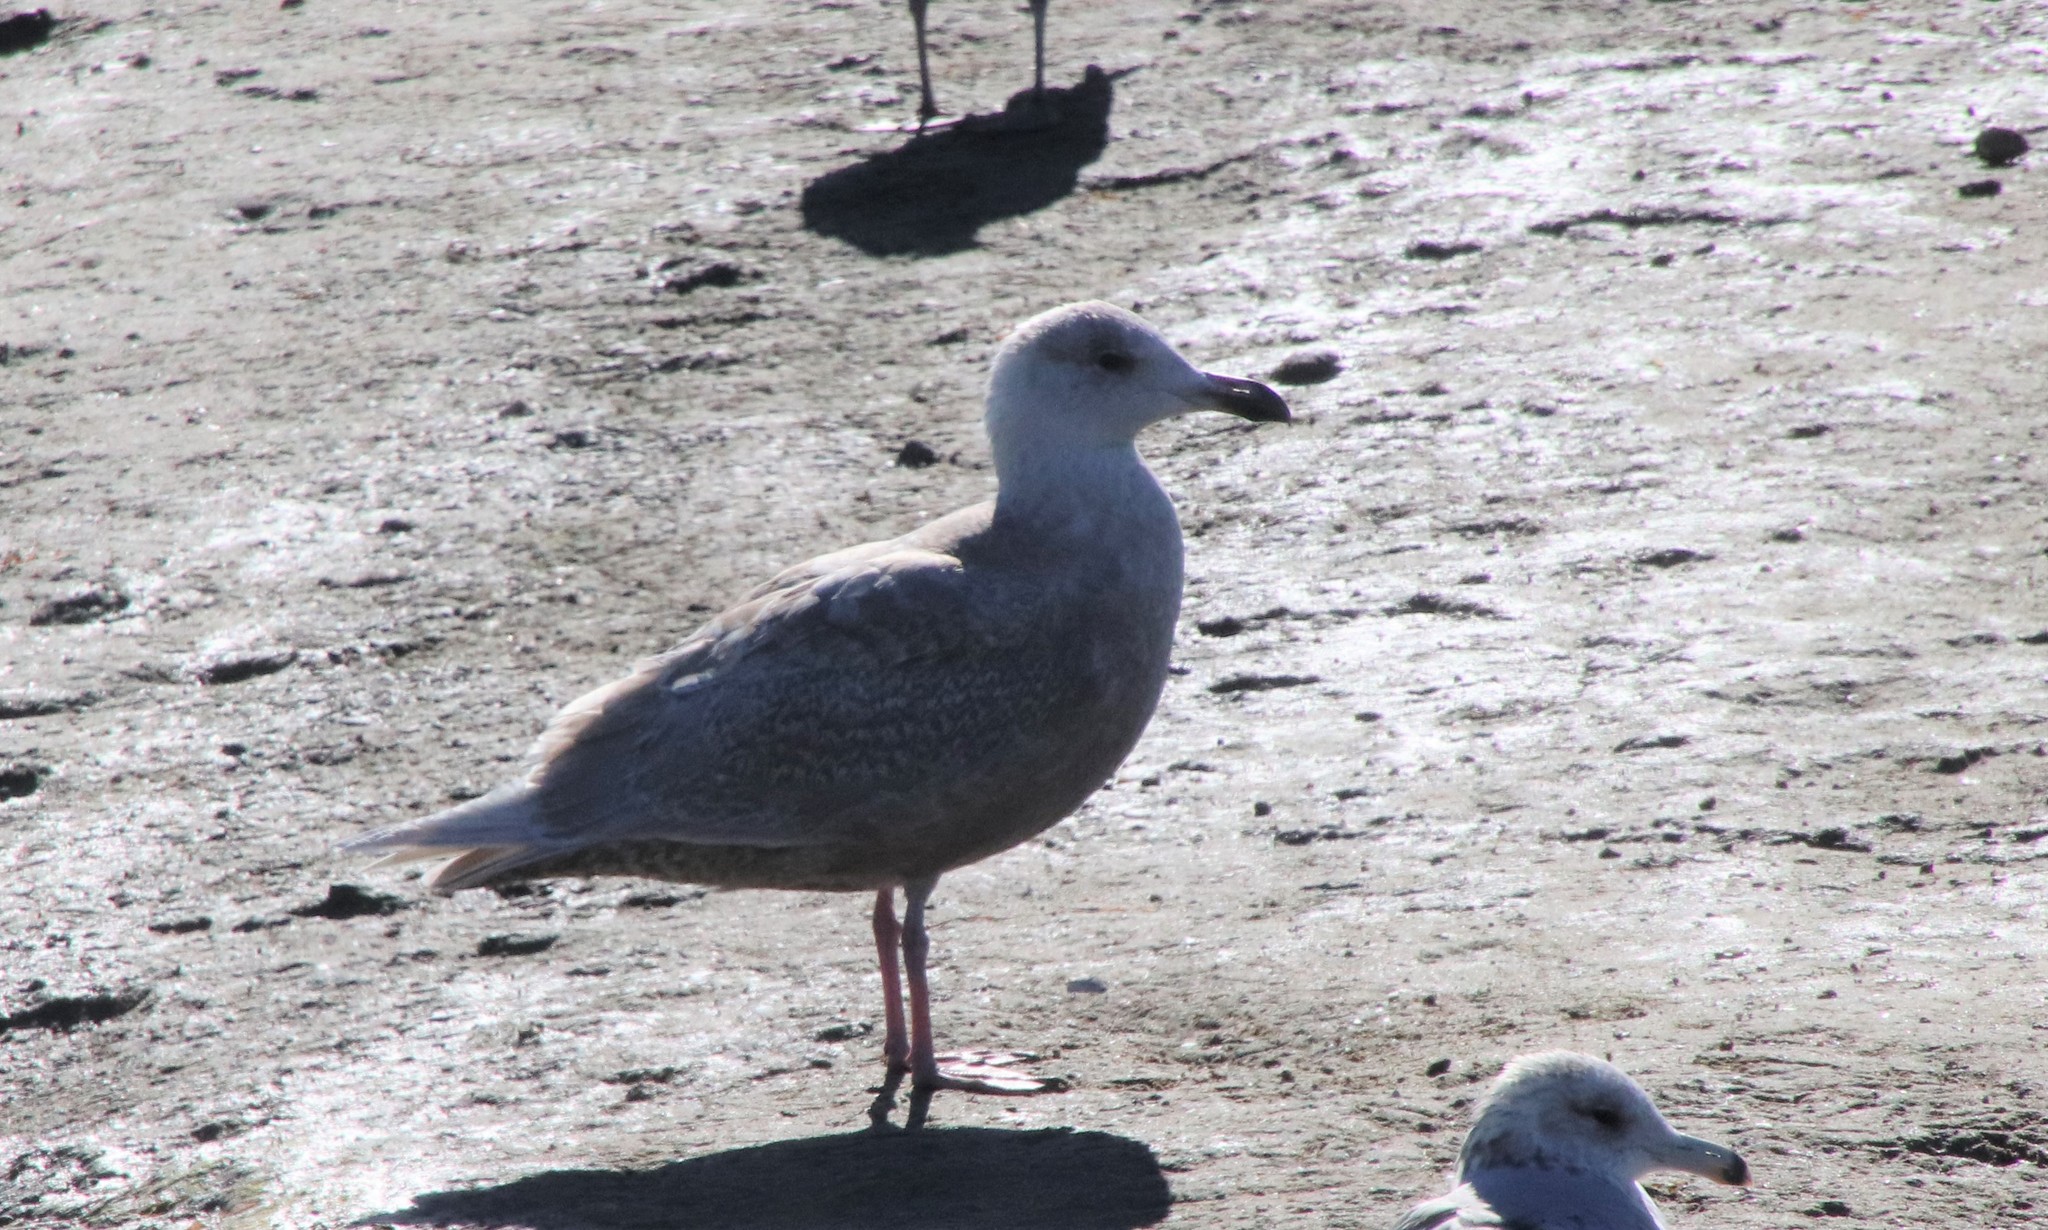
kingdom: Animalia
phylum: Chordata
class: Aves
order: Charadriiformes
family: Laridae
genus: Larus
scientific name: Larus glaucescens
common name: Glaucous-winged gull
